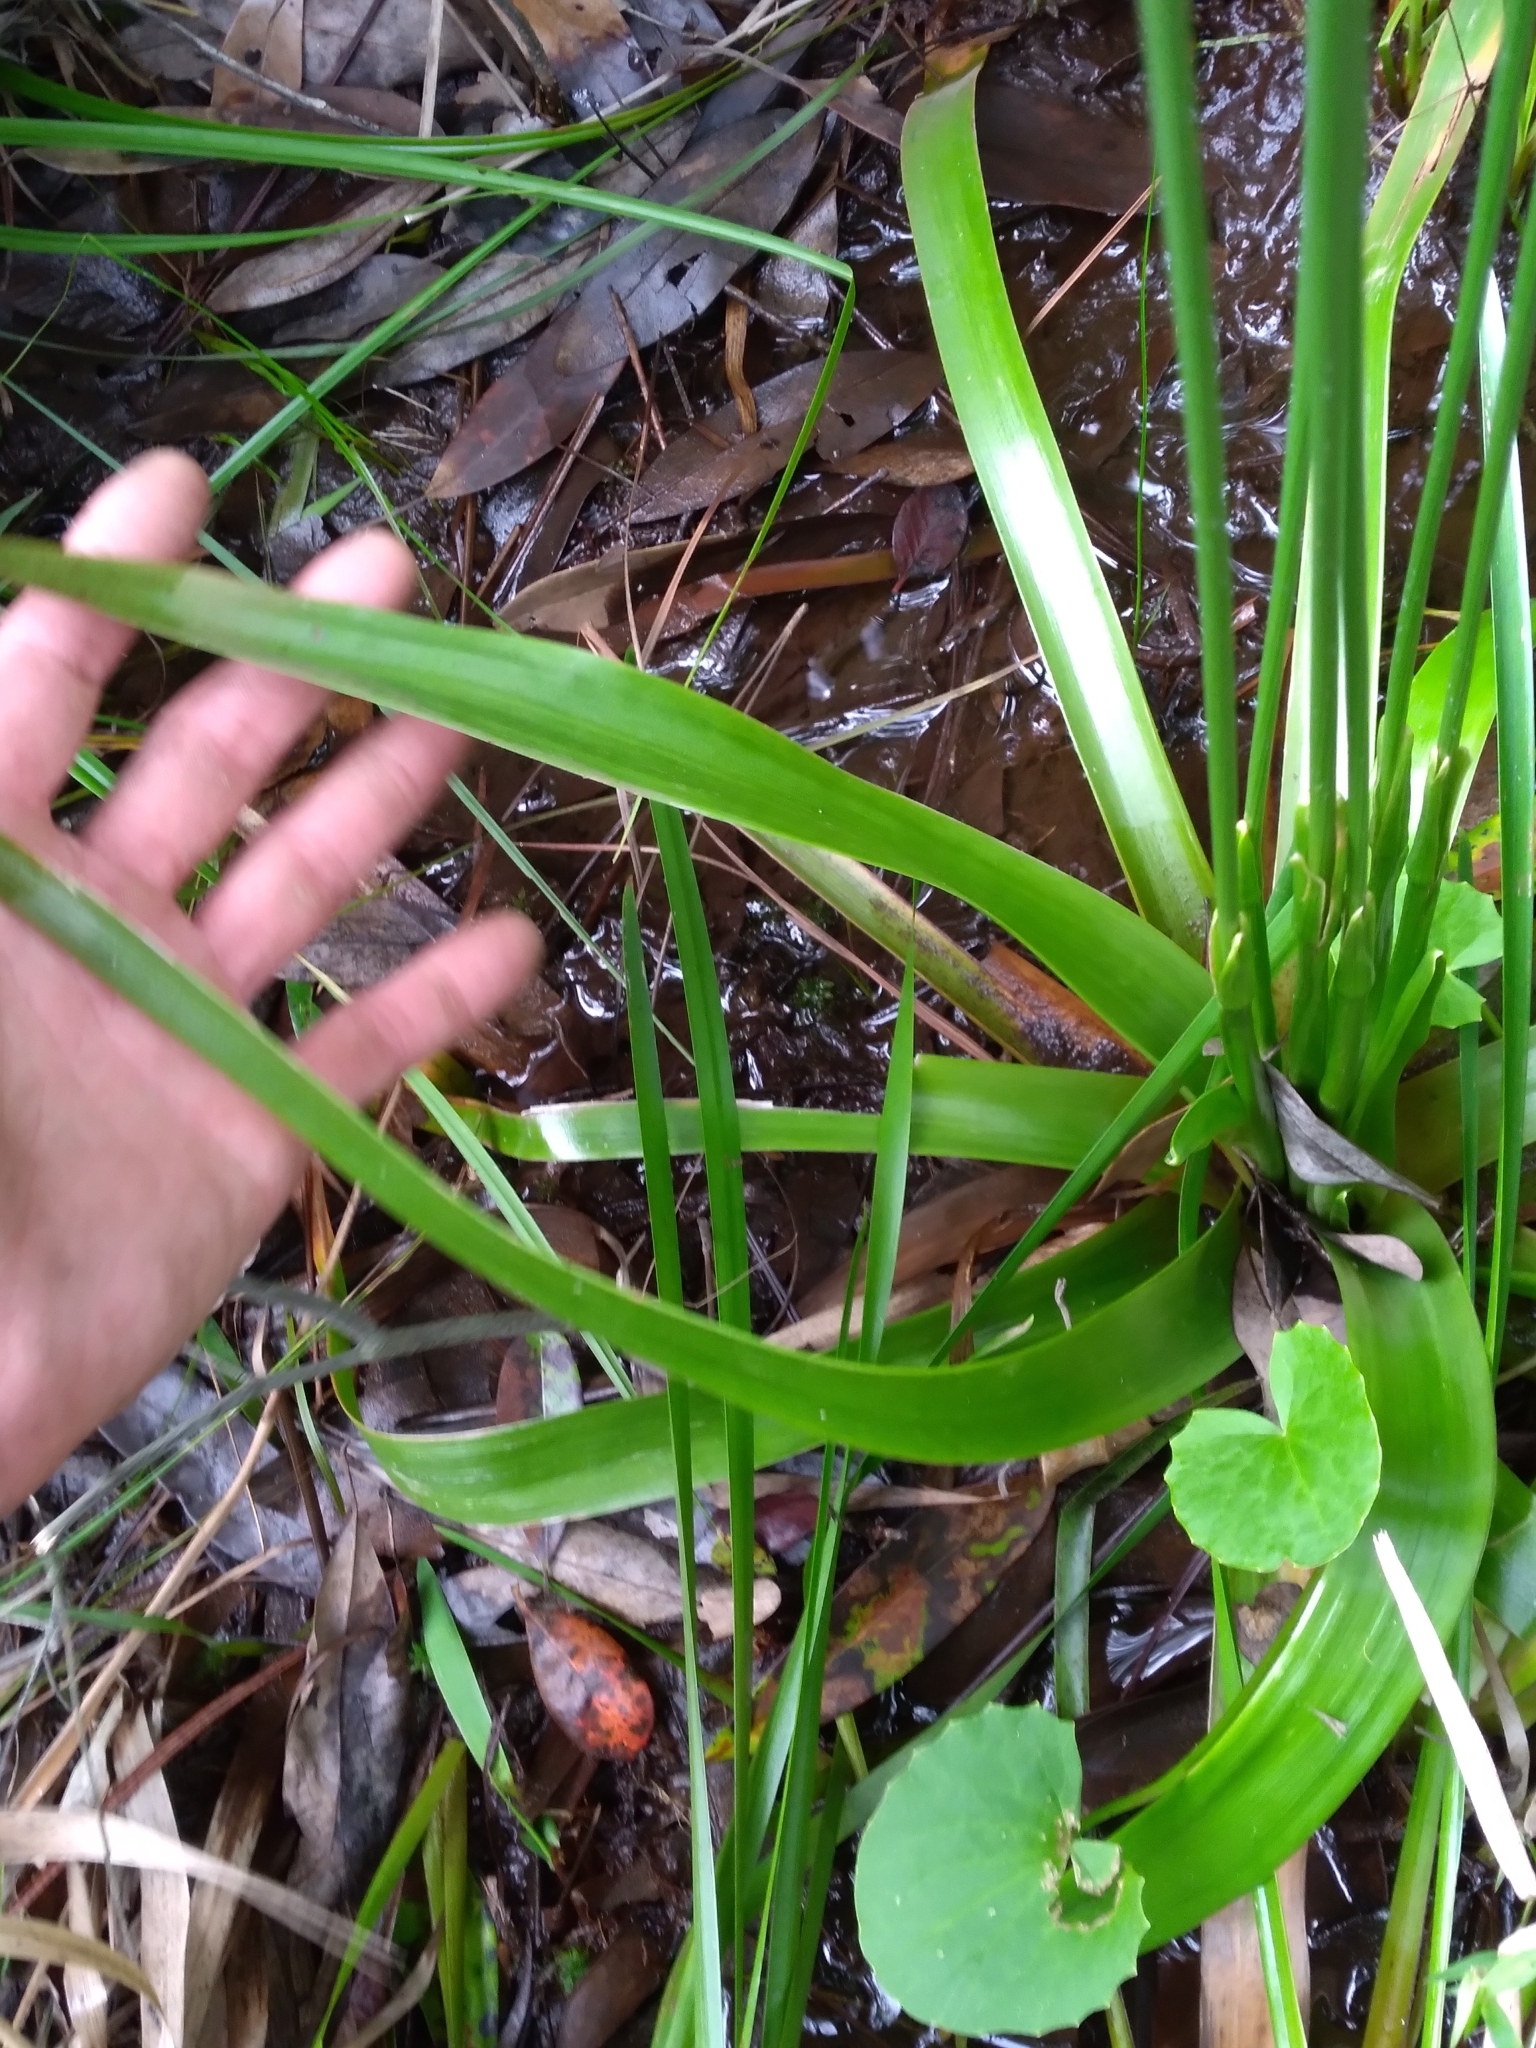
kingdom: Plantae
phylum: Tracheophyta
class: Liliopsida
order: Poales
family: Eriocaulaceae
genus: Eriocaulon
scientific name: Eriocaulon decangulare
